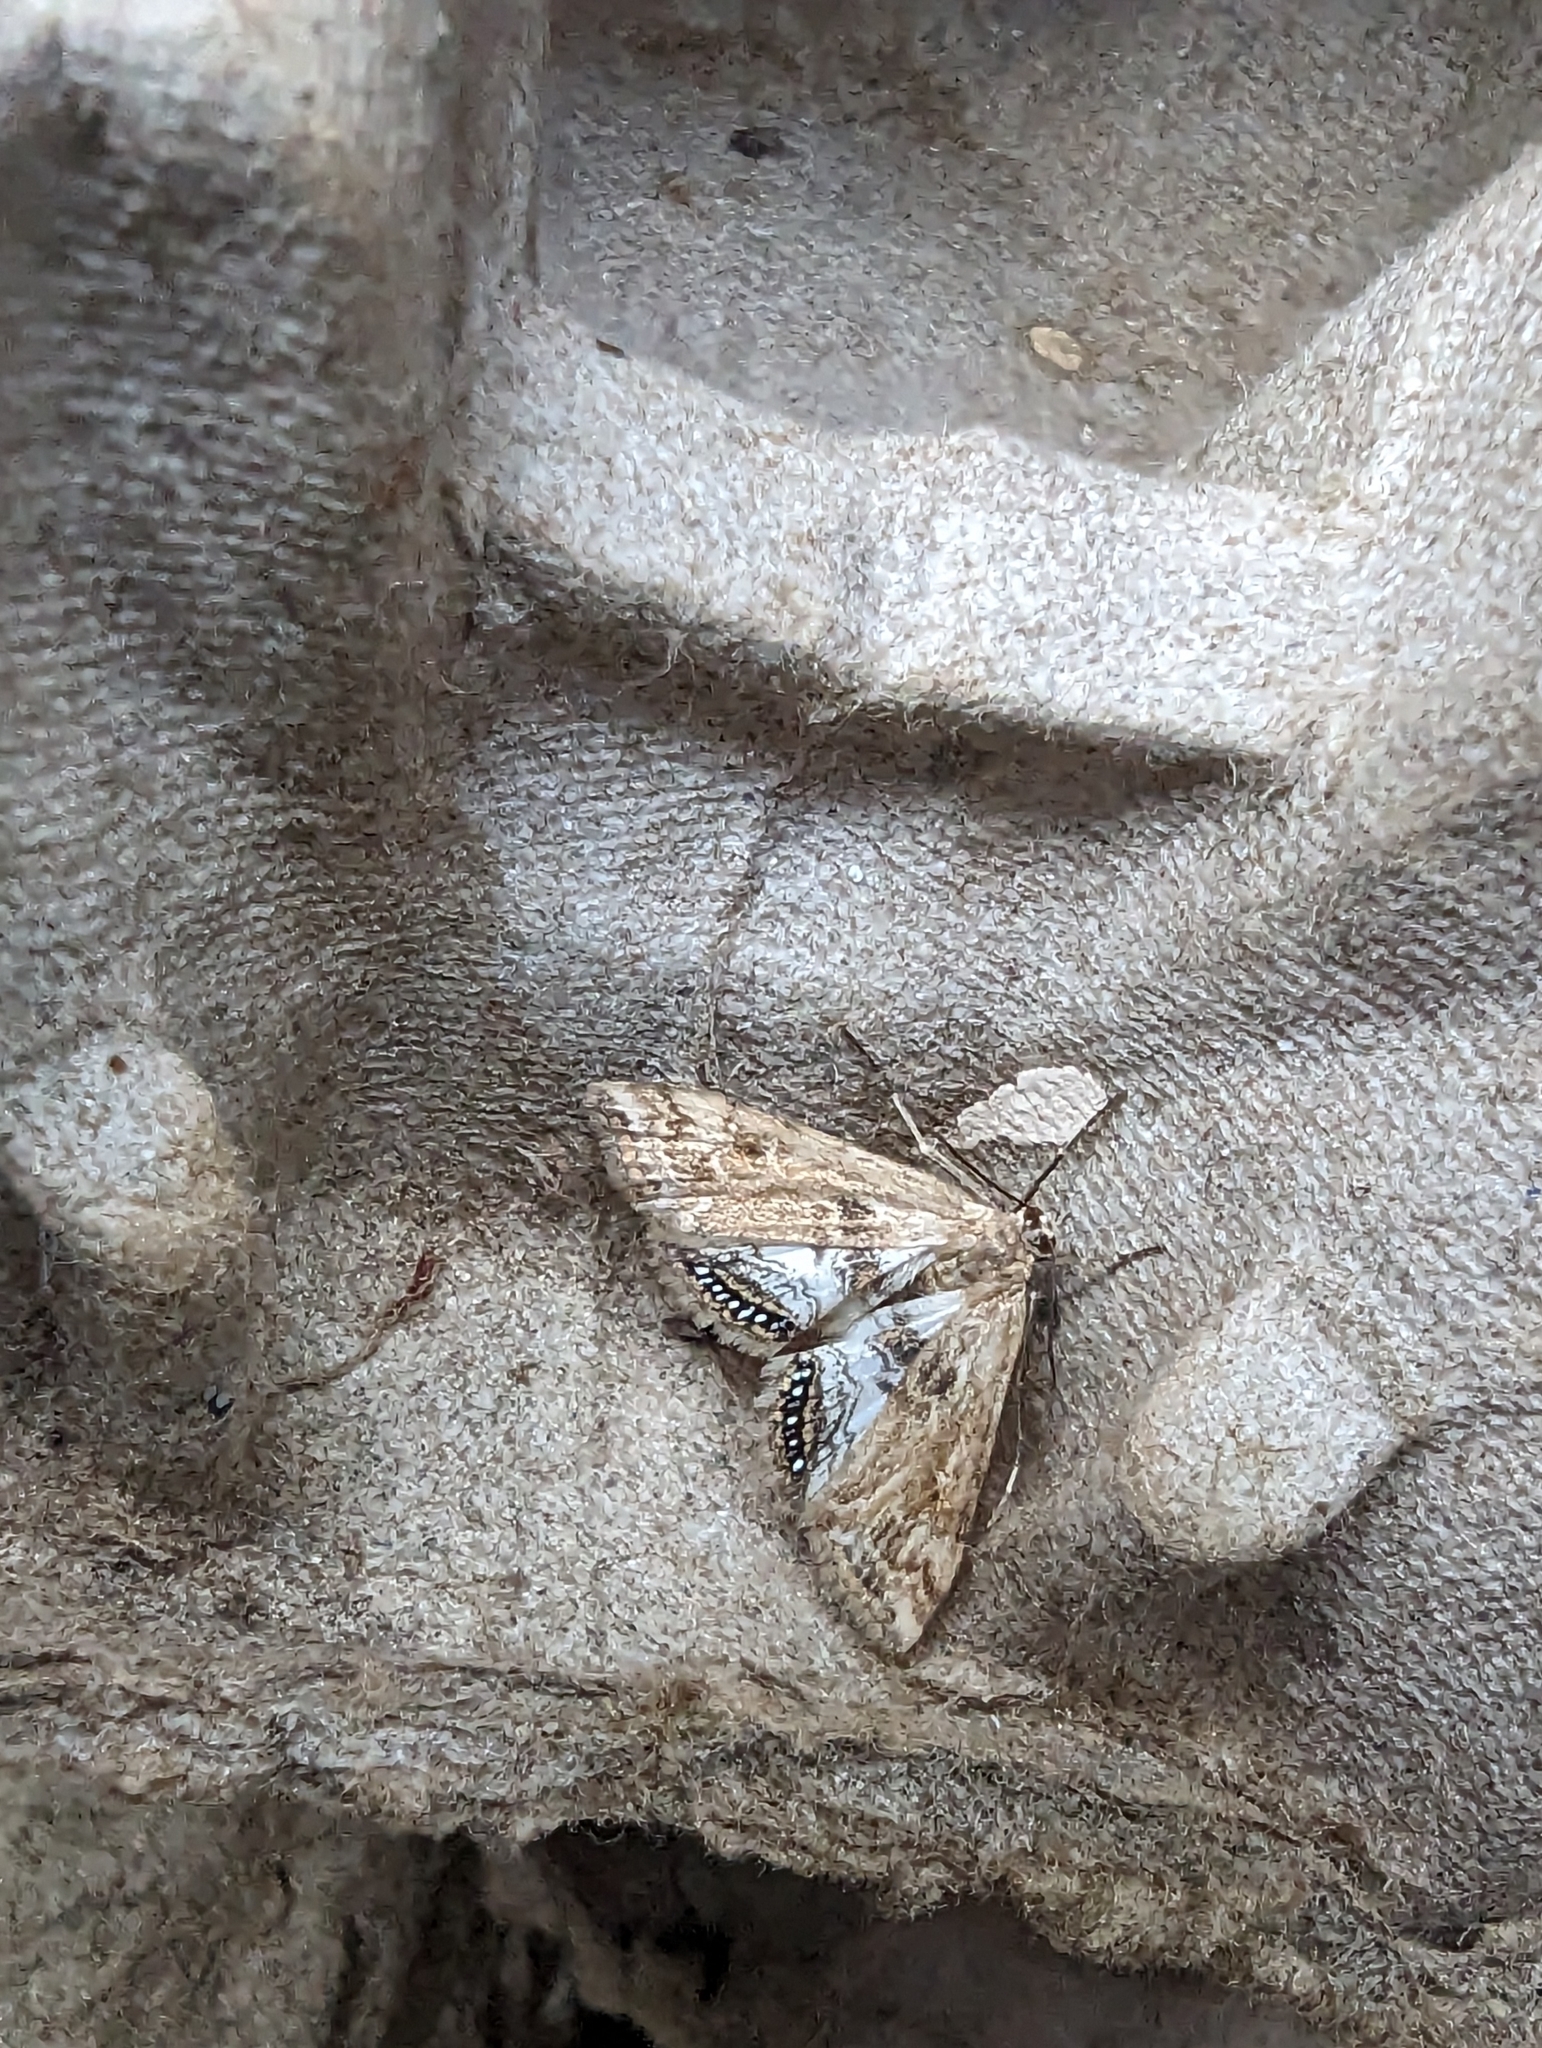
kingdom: Animalia
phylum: Arthropoda
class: Insecta
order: Lepidoptera
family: Crambidae
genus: Cataclysta
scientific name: Cataclysta lemnata
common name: Small china-mark
